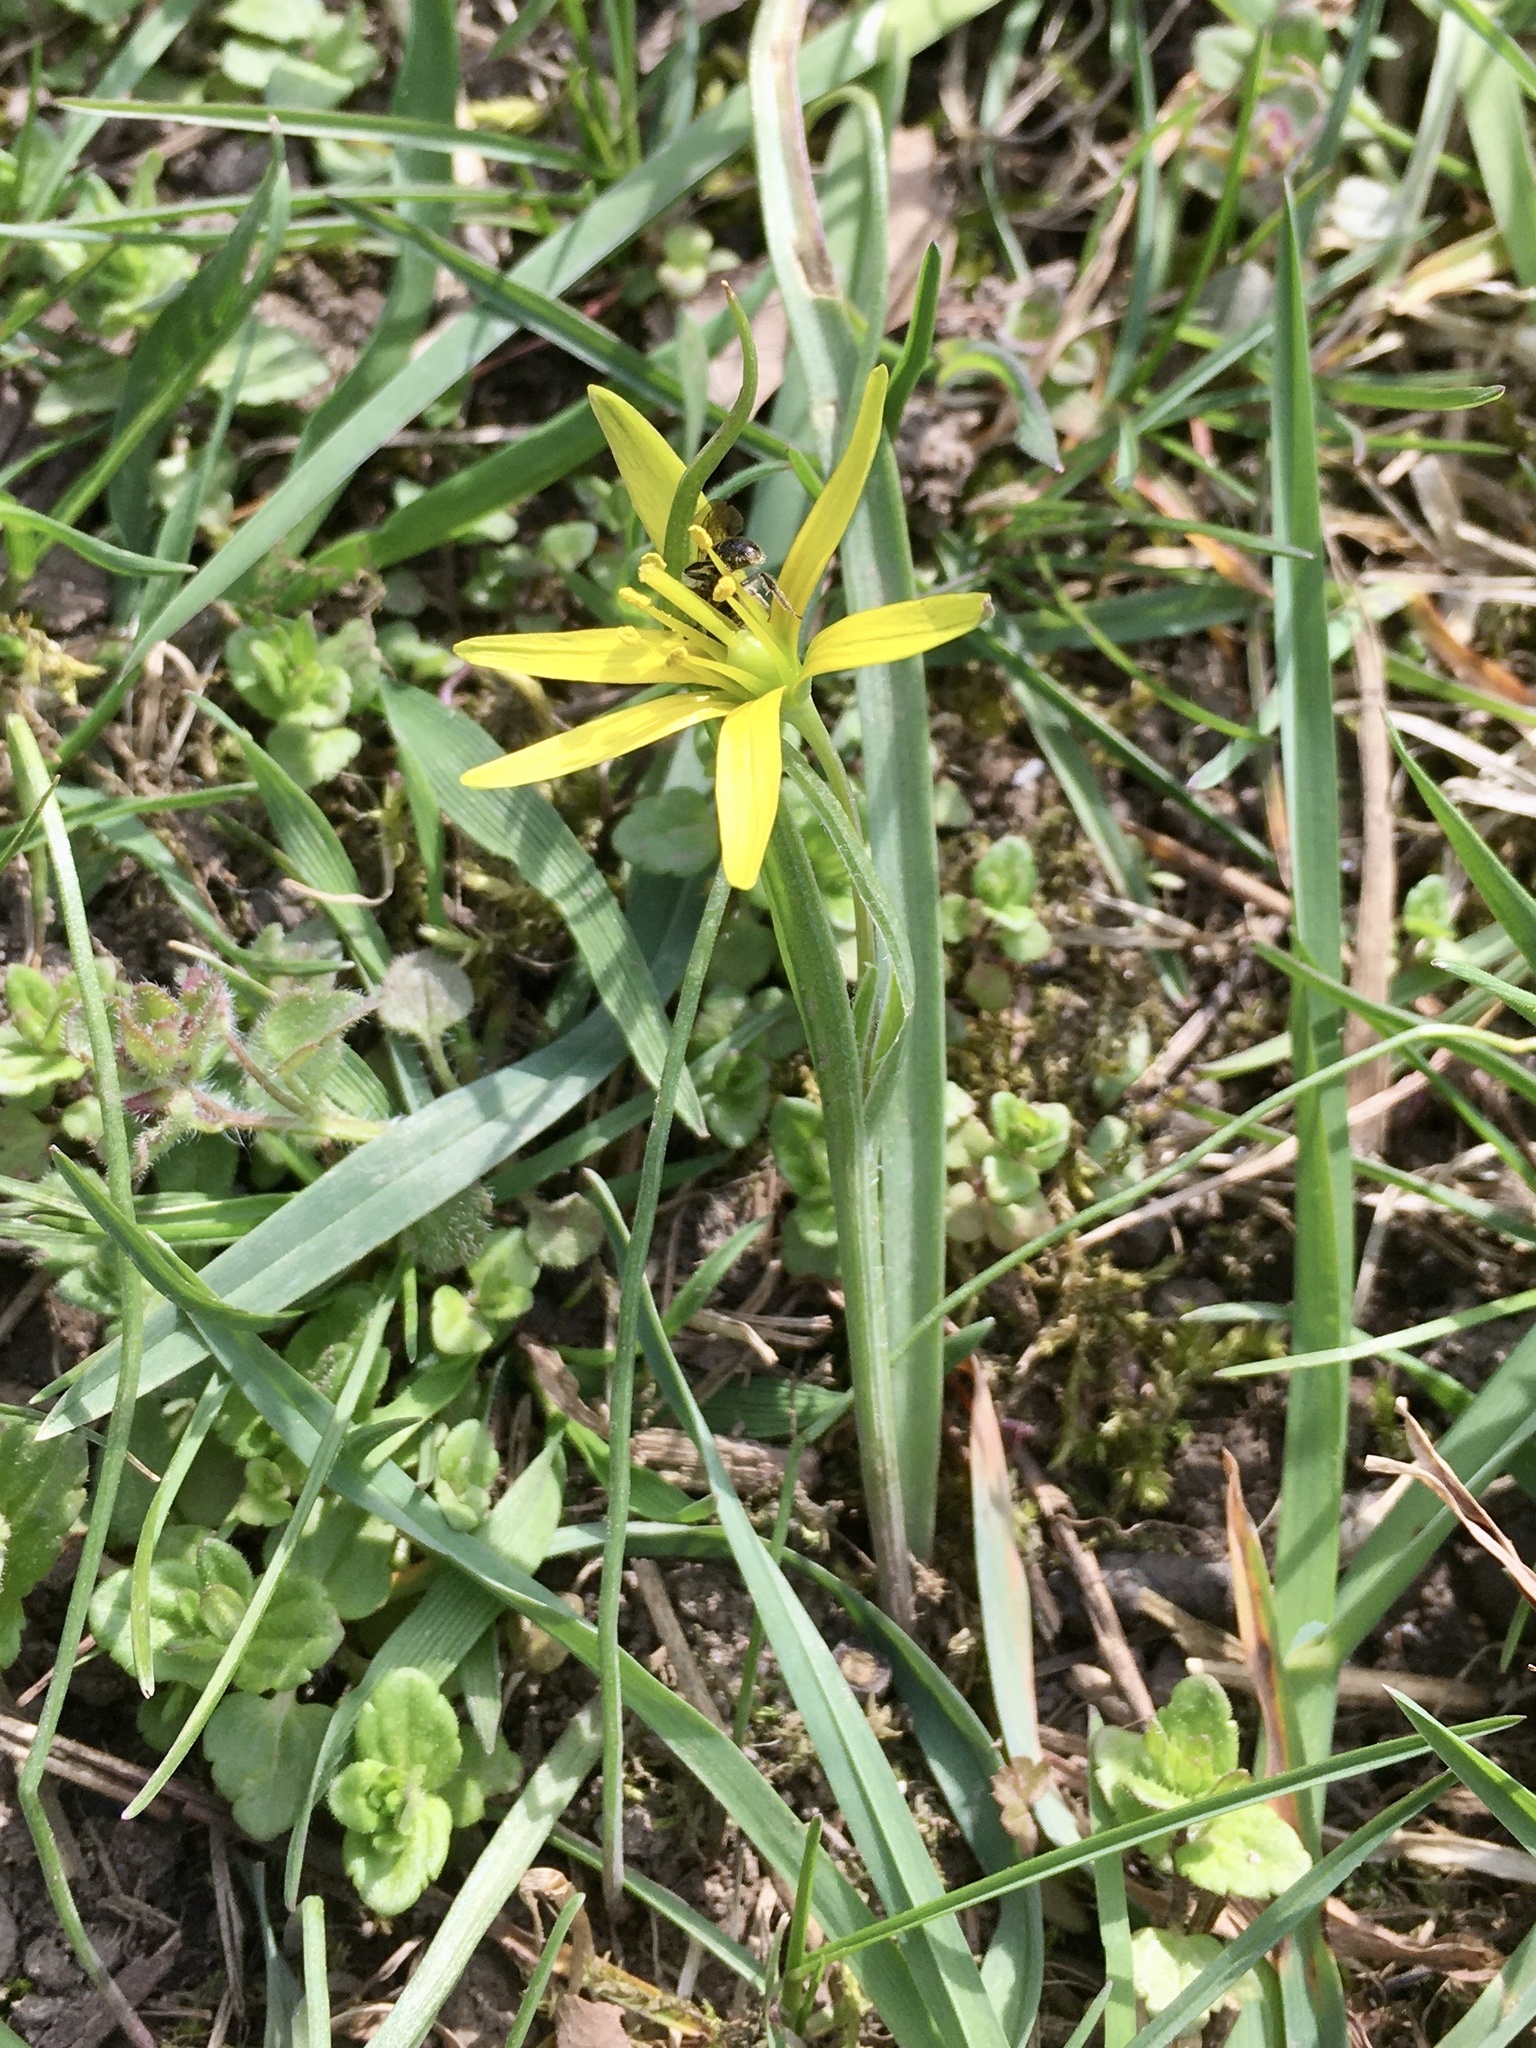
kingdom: Plantae
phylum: Tracheophyta
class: Liliopsida
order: Liliales
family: Liliaceae
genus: Gagea
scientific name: Gagea pratensis
